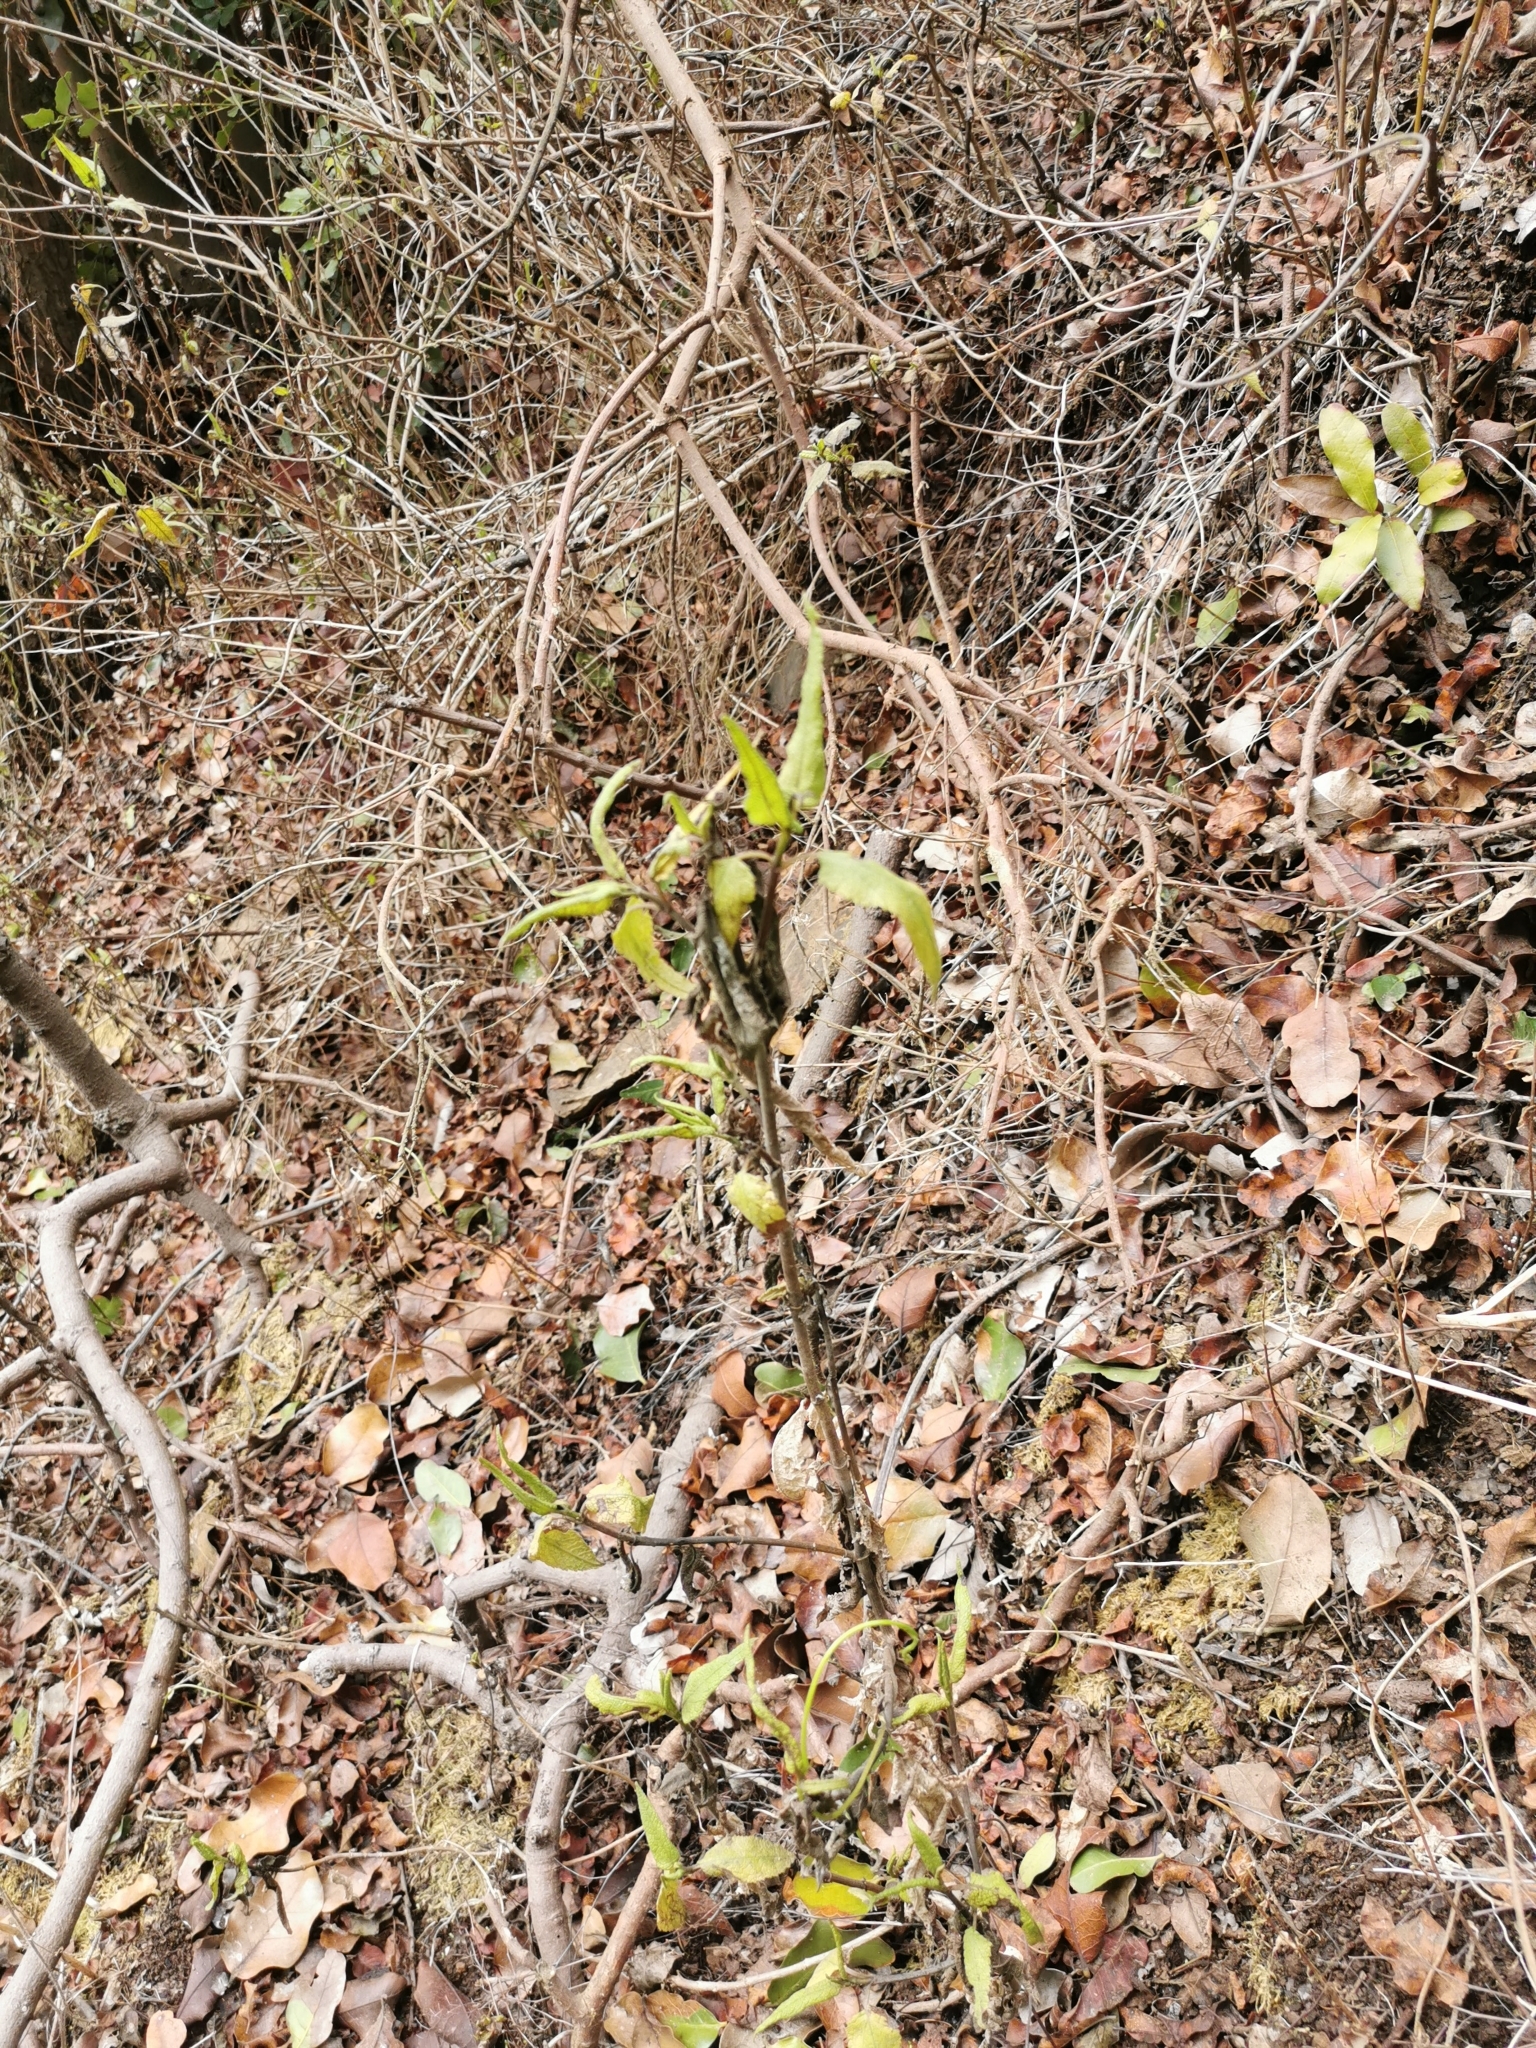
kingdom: Plantae
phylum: Tracheophyta
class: Magnoliopsida
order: Asterales
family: Asteraceae
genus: Aristeguietia
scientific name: Aristeguietia salvia
